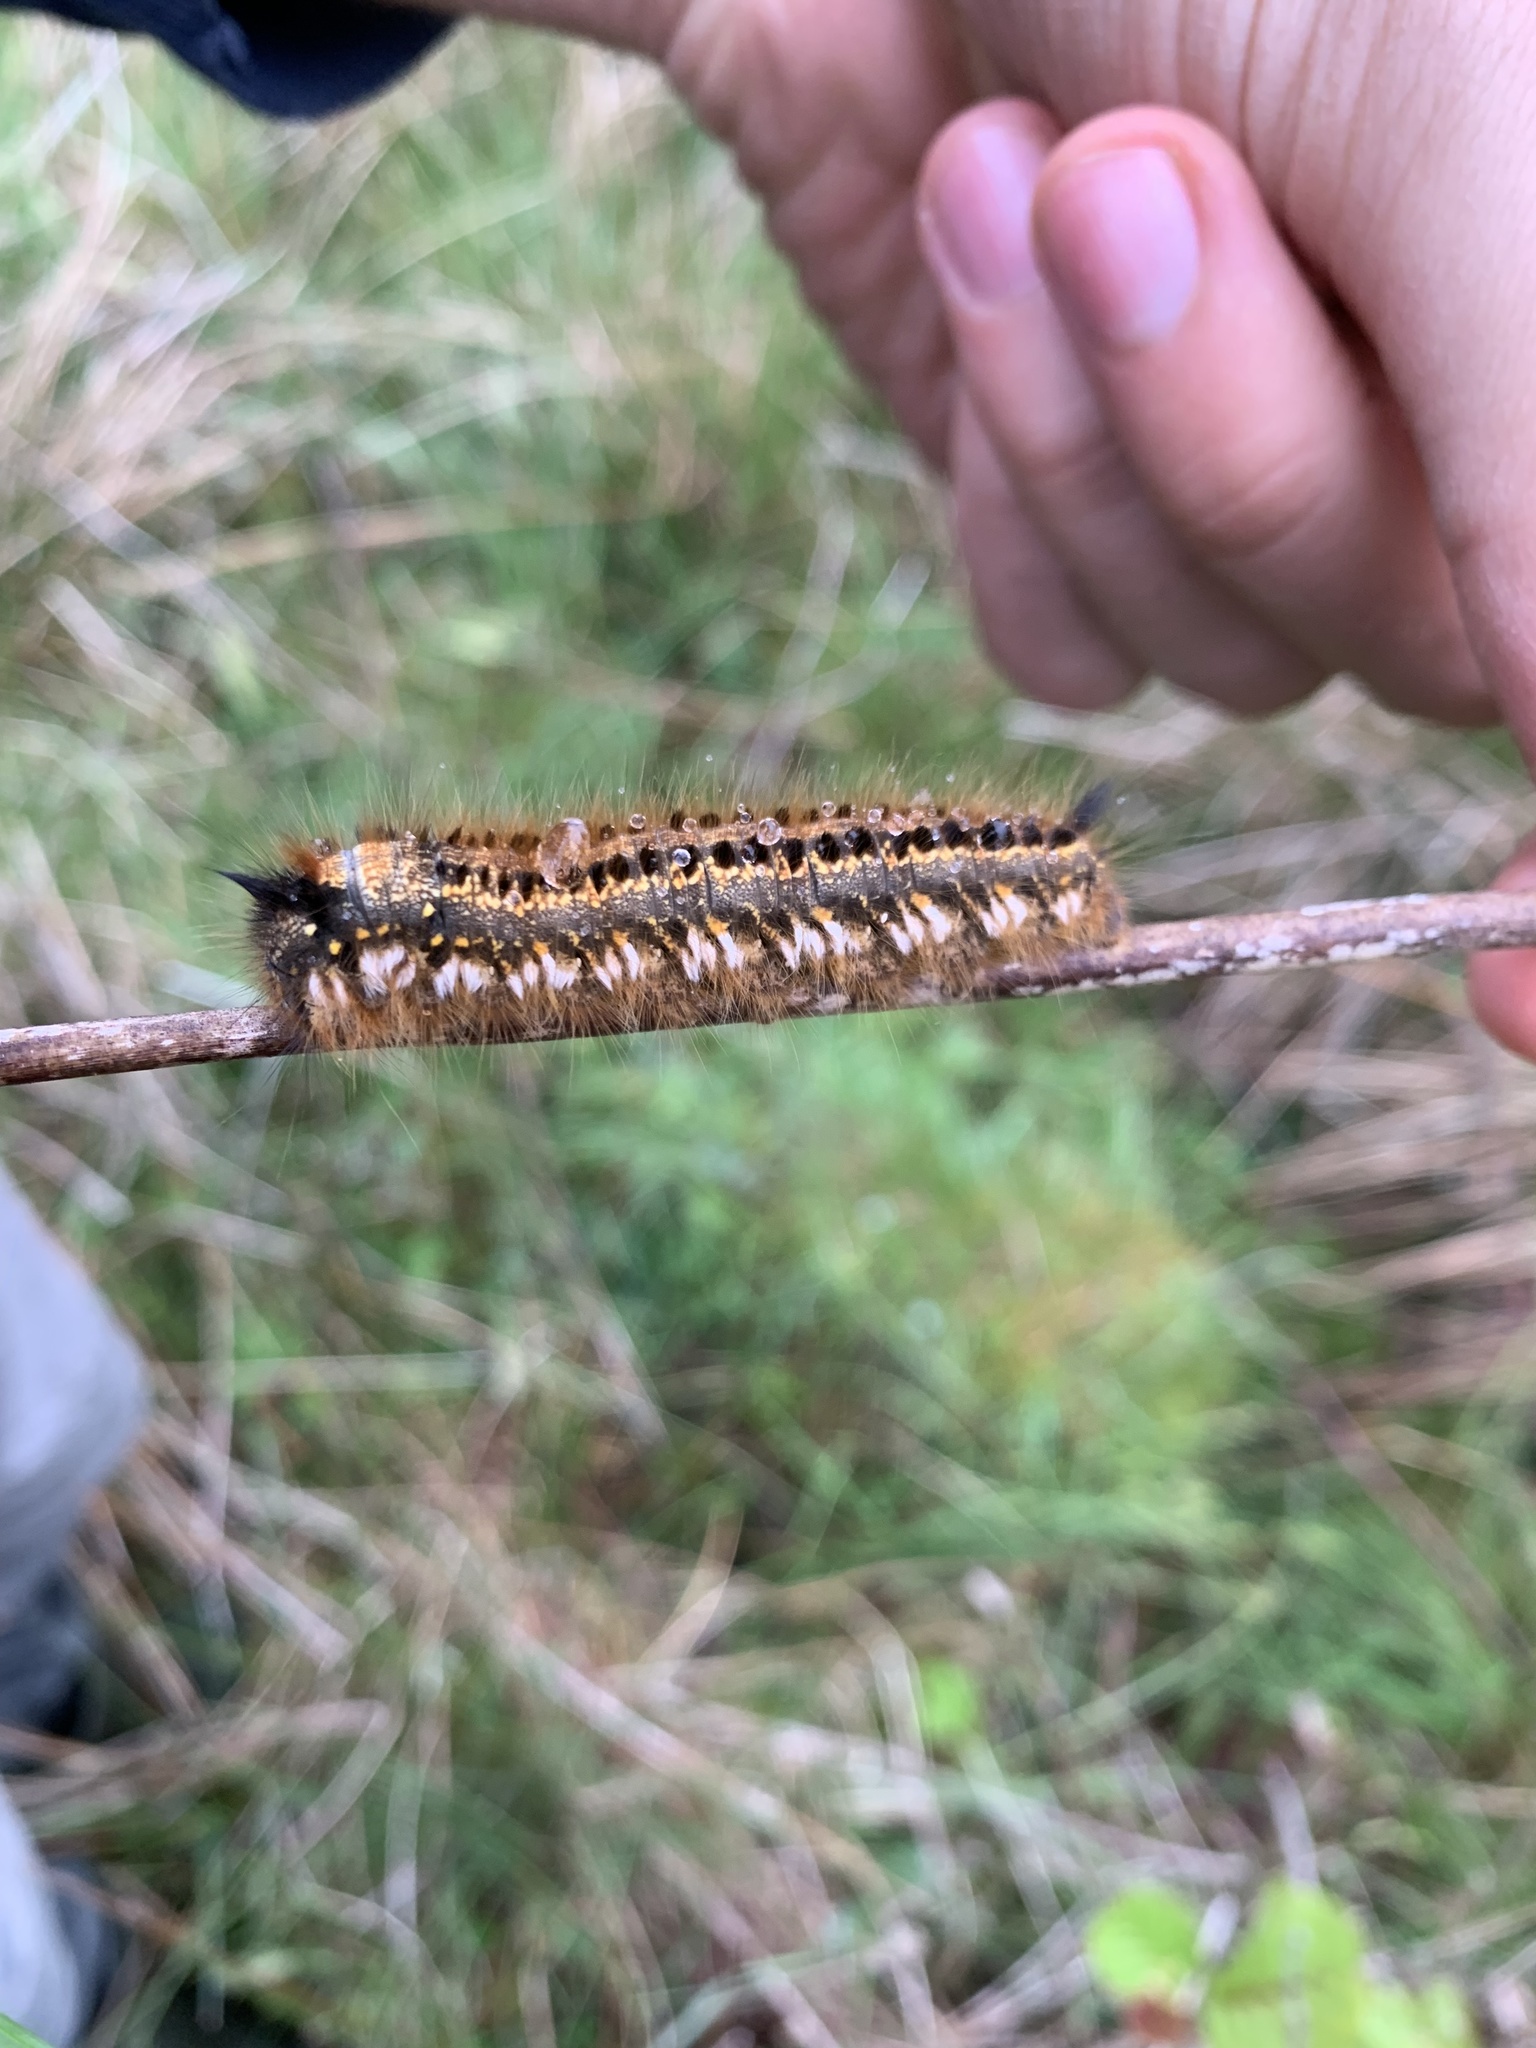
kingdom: Animalia
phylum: Arthropoda
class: Insecta
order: Lepidoptera
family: Lasiocampidae
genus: Euthrix
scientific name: Euthrix potatoria
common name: Drinker
